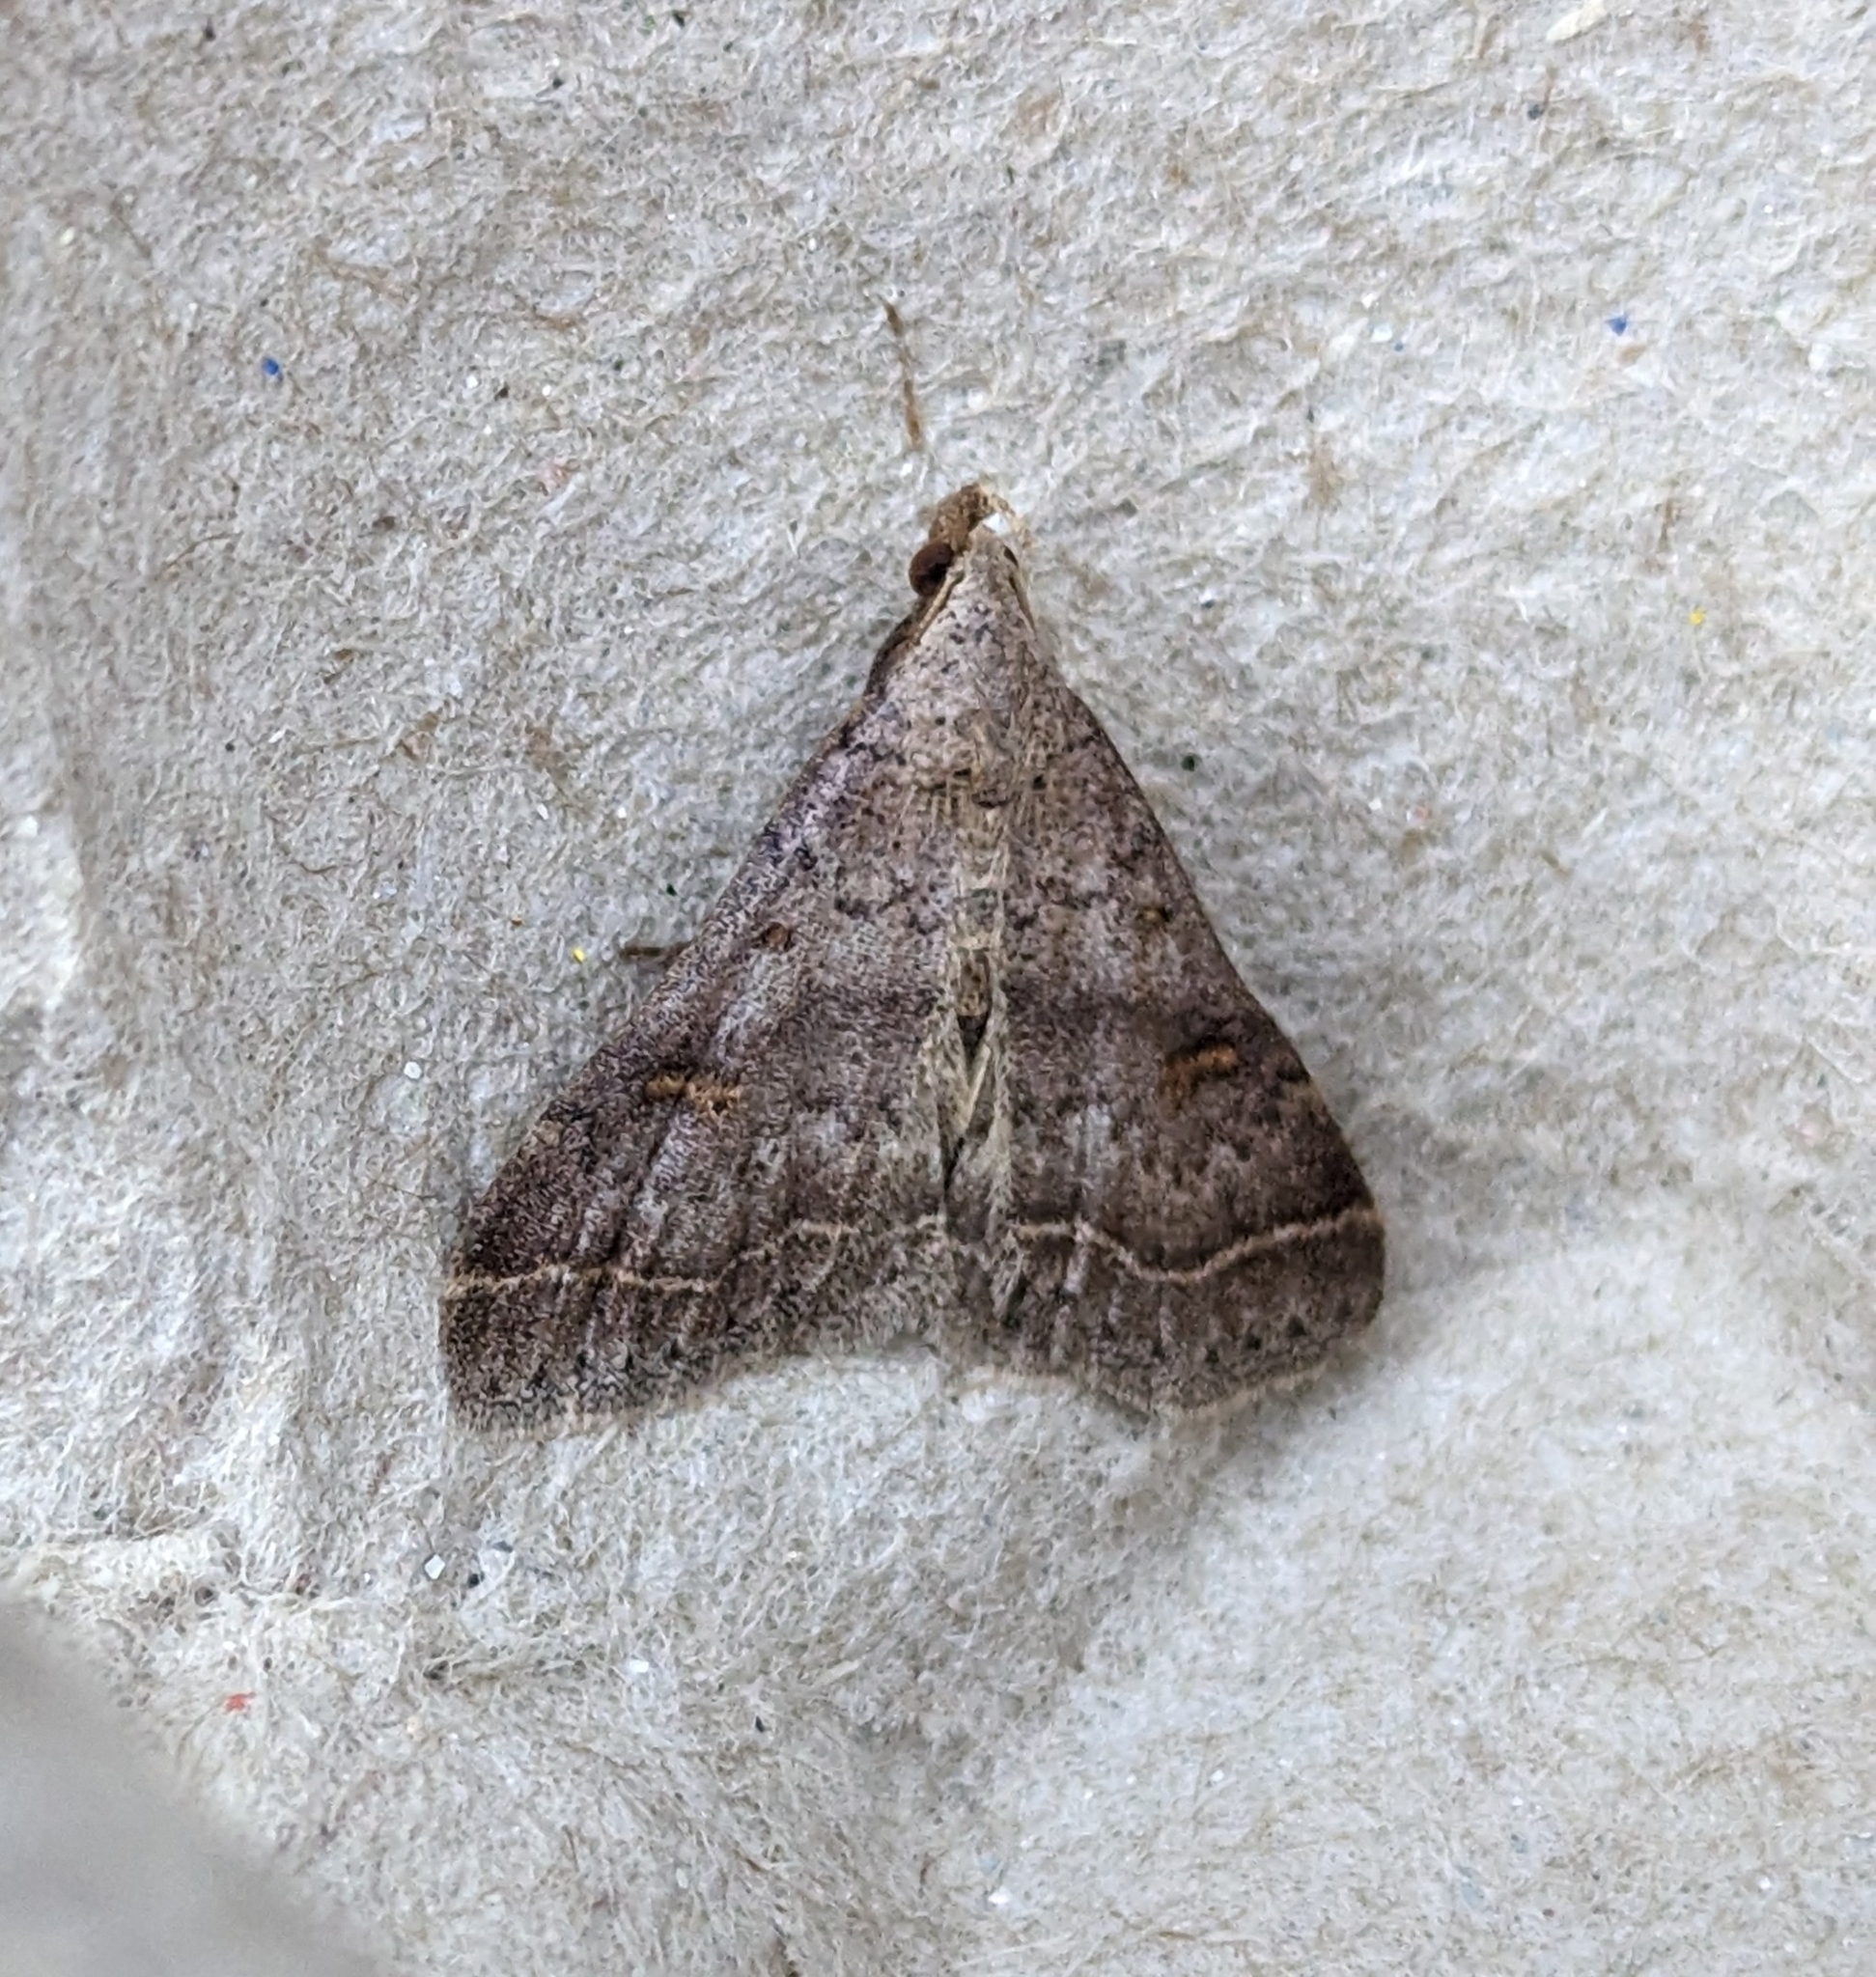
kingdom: Animalia
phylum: Arthropoda
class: Insecta
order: Lepidoptera
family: Erebidae
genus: Bleptina
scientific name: Bleptina caradrinalis
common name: Bent-winged owlet
